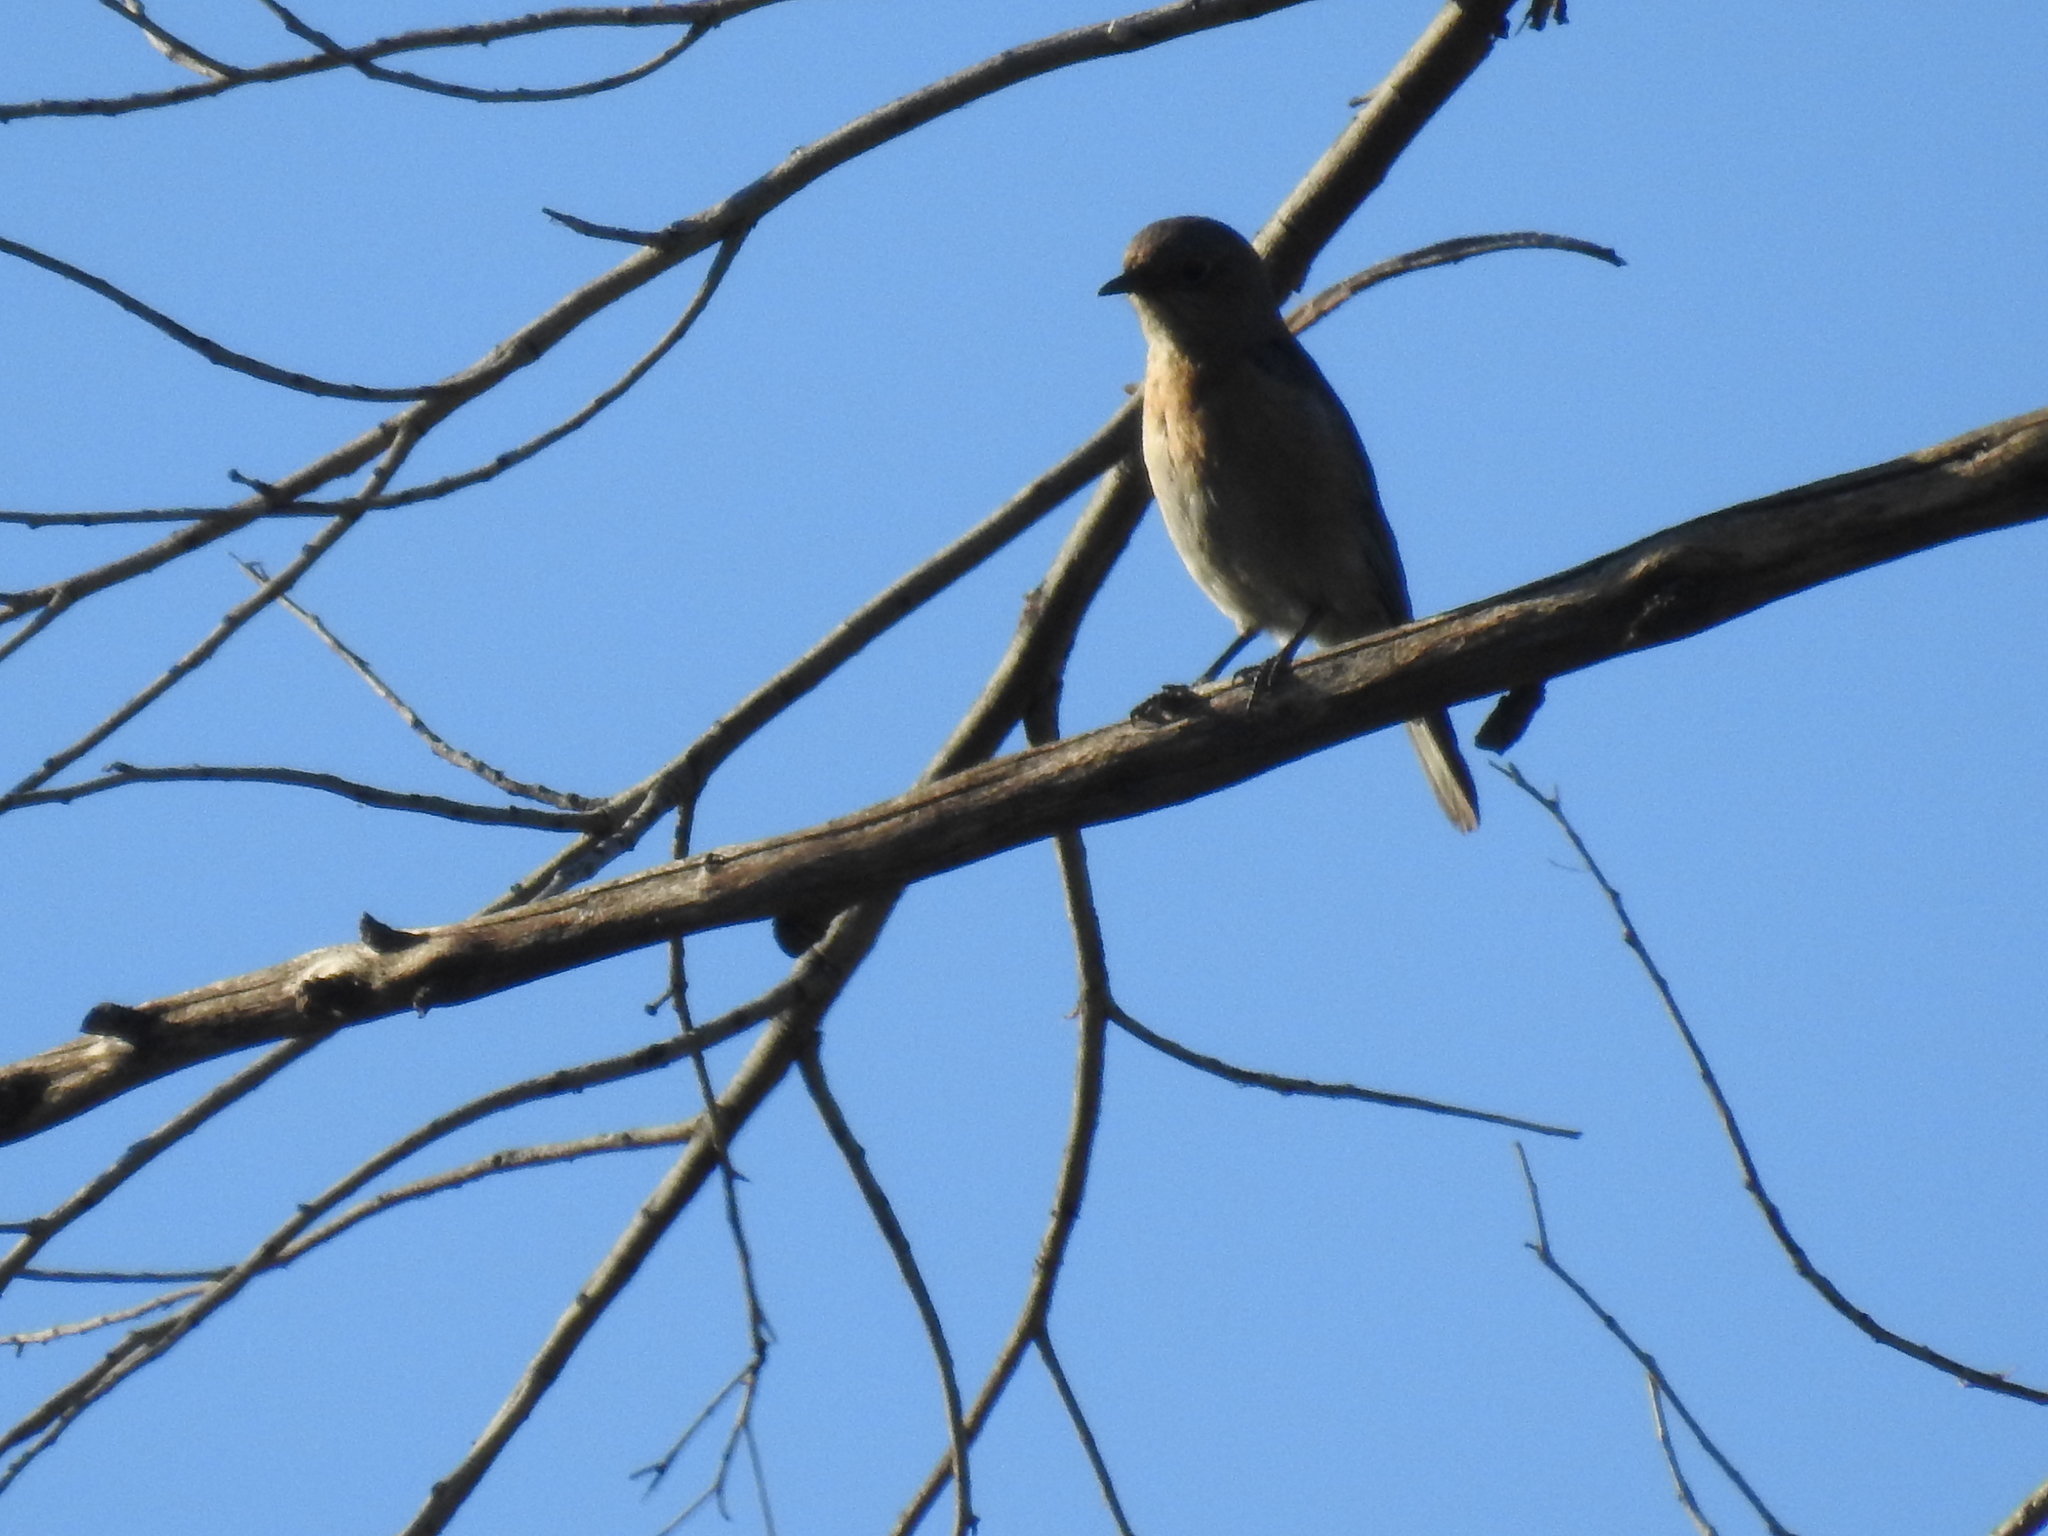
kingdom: Animalia
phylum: Chordata
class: Aves
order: Passeriformes
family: Turdidae
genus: Sialia
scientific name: Sialia mexicana
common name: Western bluebird
